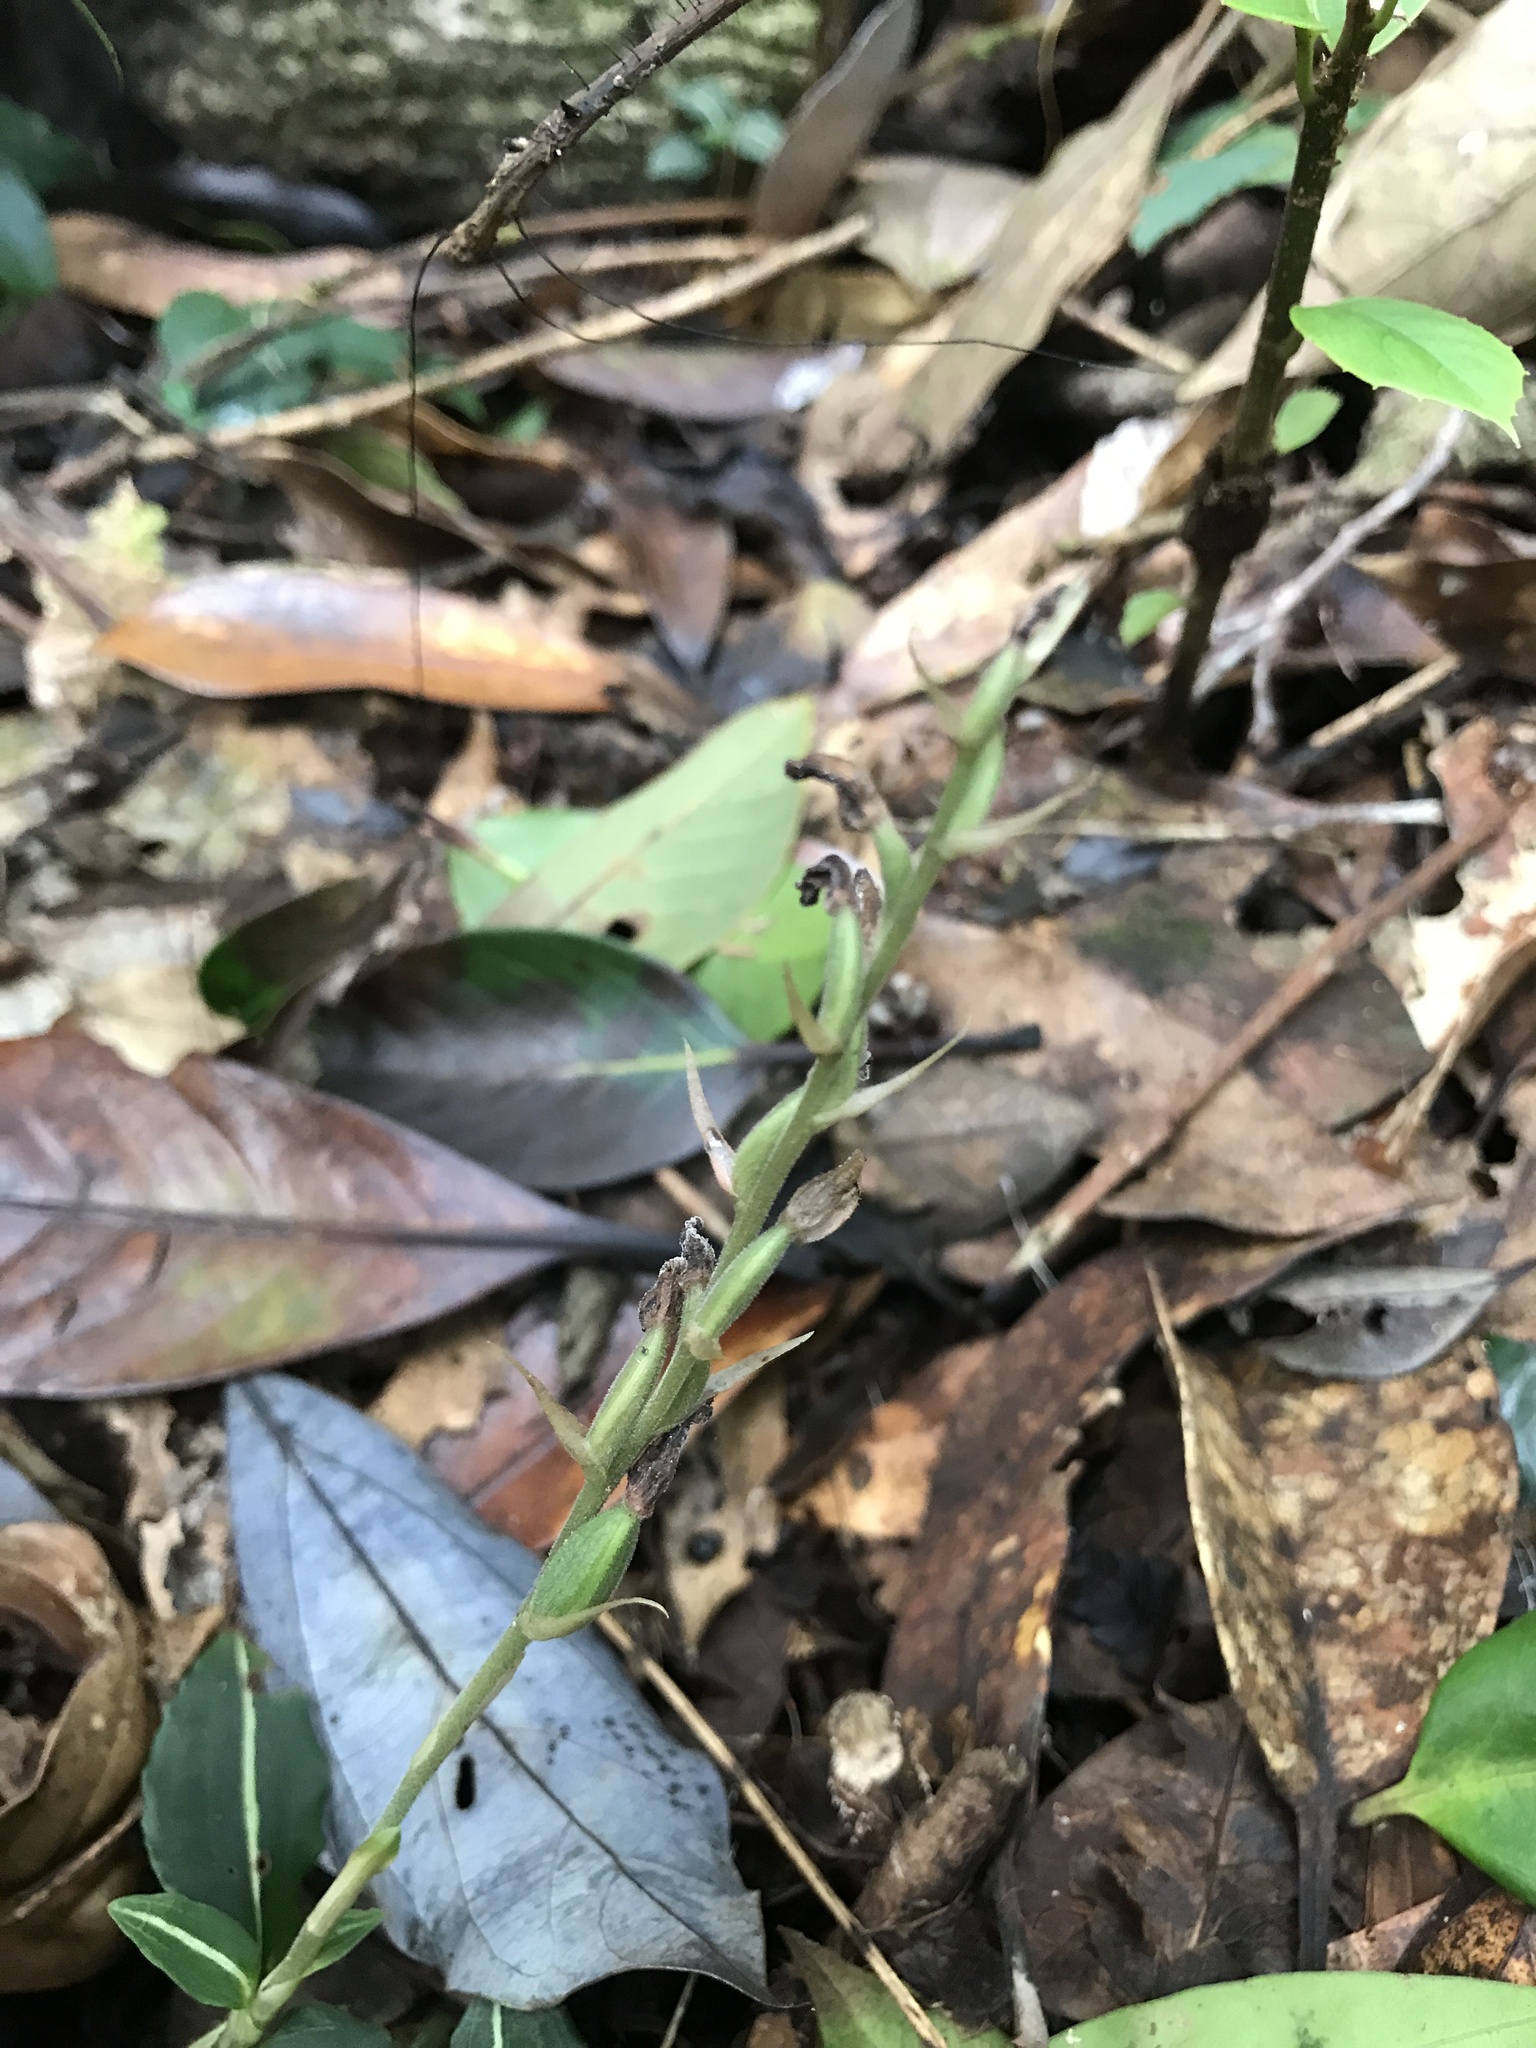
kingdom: Plantae
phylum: Tracheophyta
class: Liliopsida
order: Asparagales
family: Orchidaceae
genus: Goodyera
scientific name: Goodyera velutina
